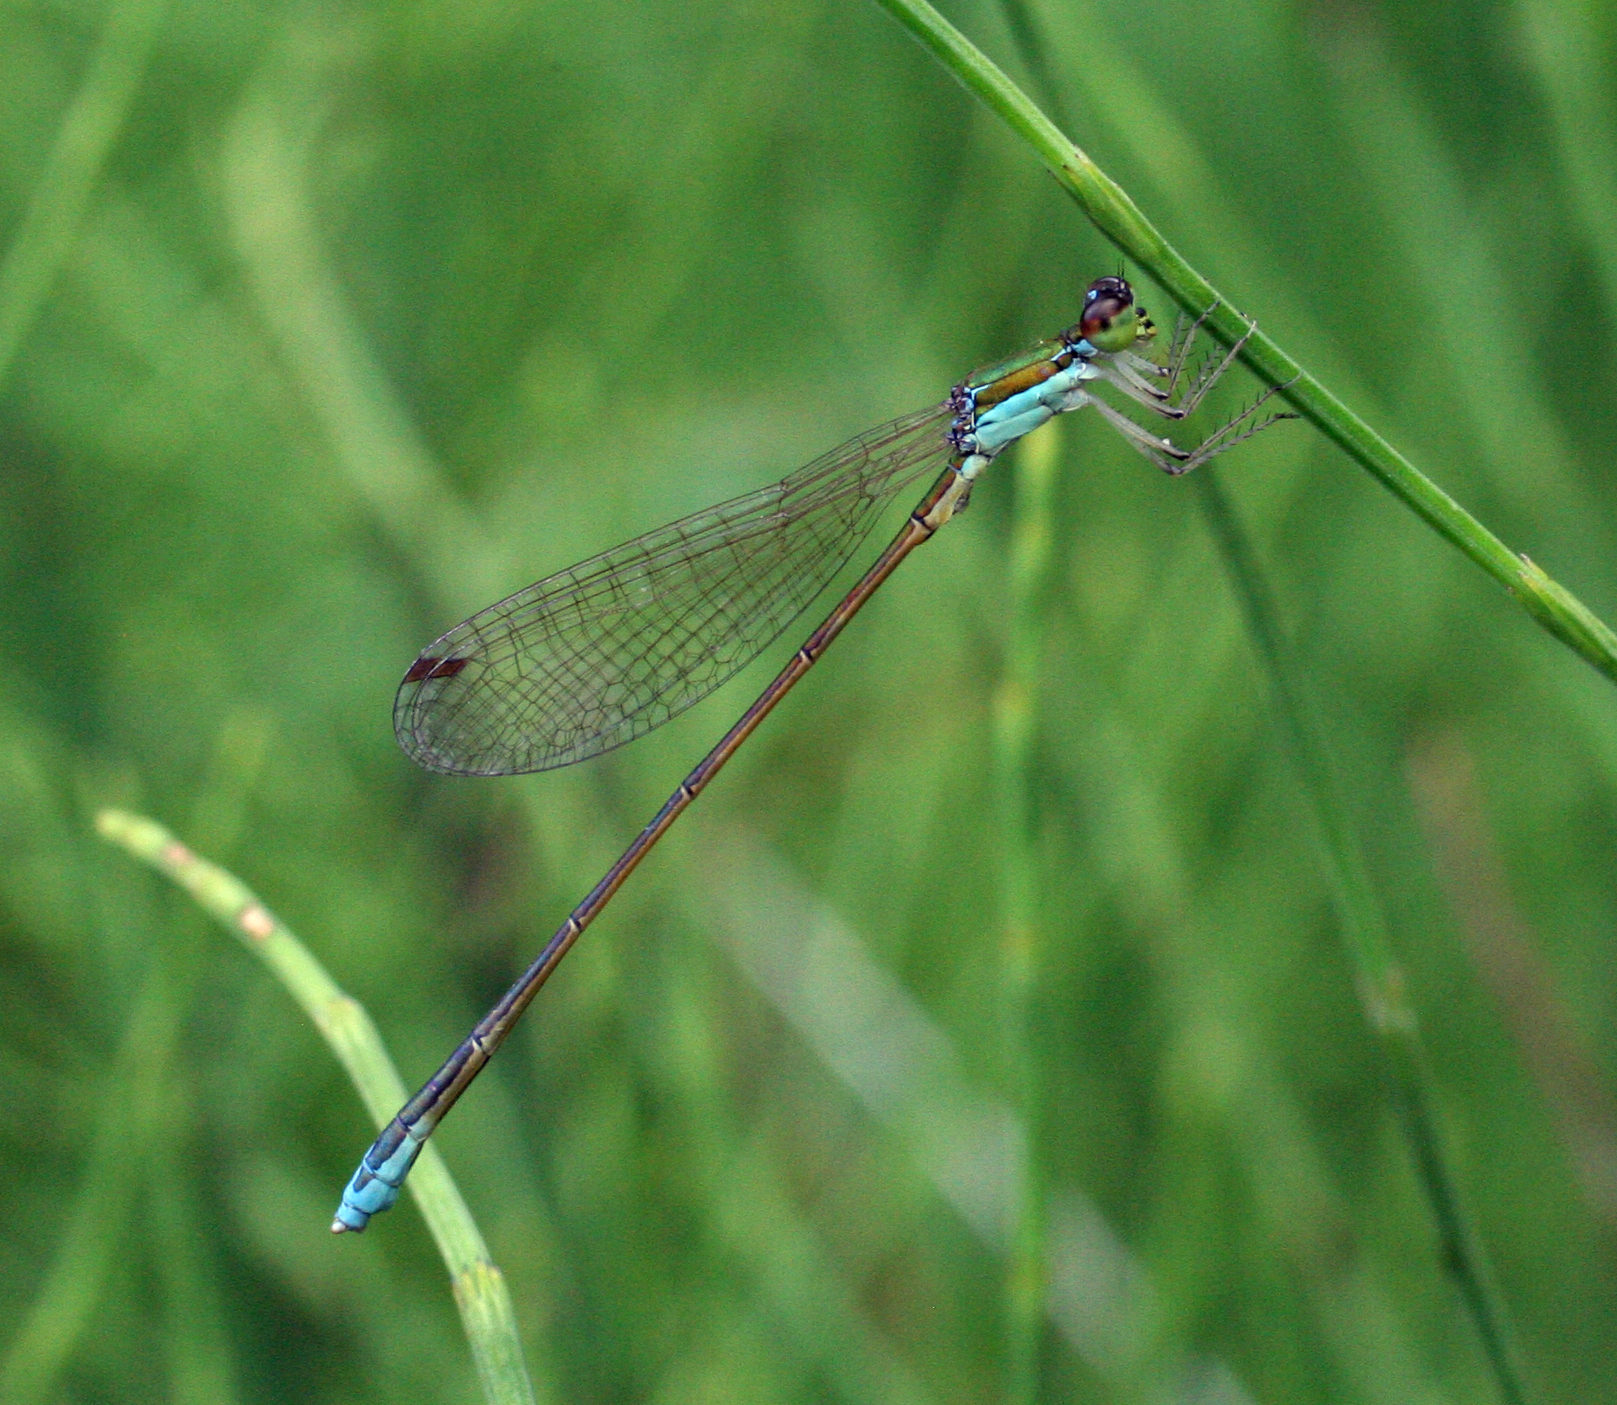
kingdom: Animalia
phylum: Arthropoda
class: Insecta
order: Odonata
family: Coenagrionidae
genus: Nehalennia
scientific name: Nehalennia speciosa
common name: Sedgling
